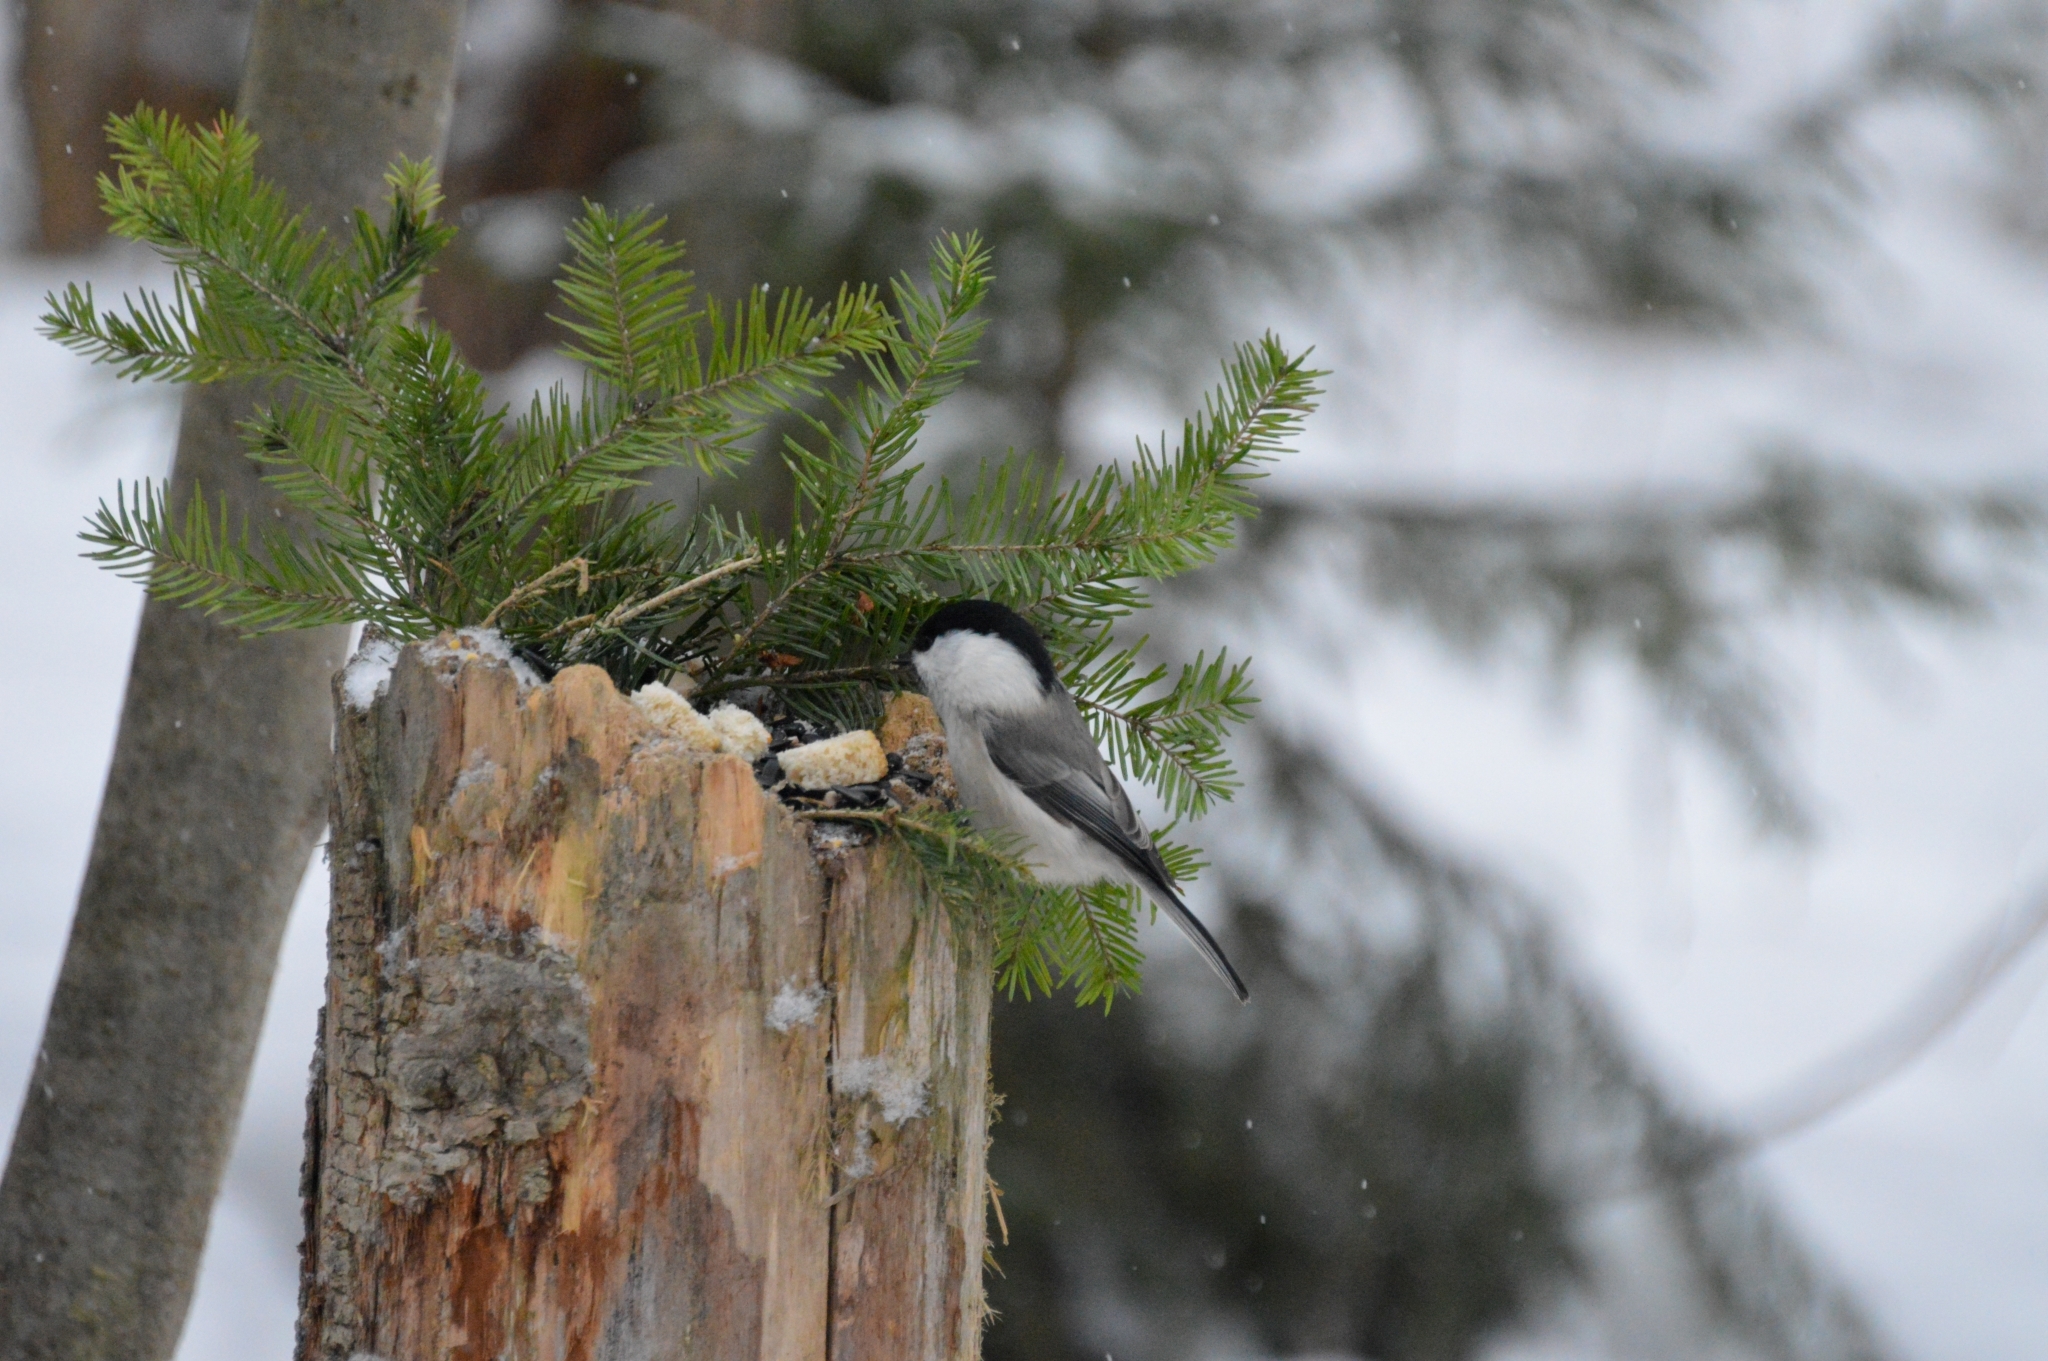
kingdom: Animalia
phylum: Chordata
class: Aves
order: Passeriformes
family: Paridae
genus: Poecile
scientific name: Poecile montanus
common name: Willow tit
